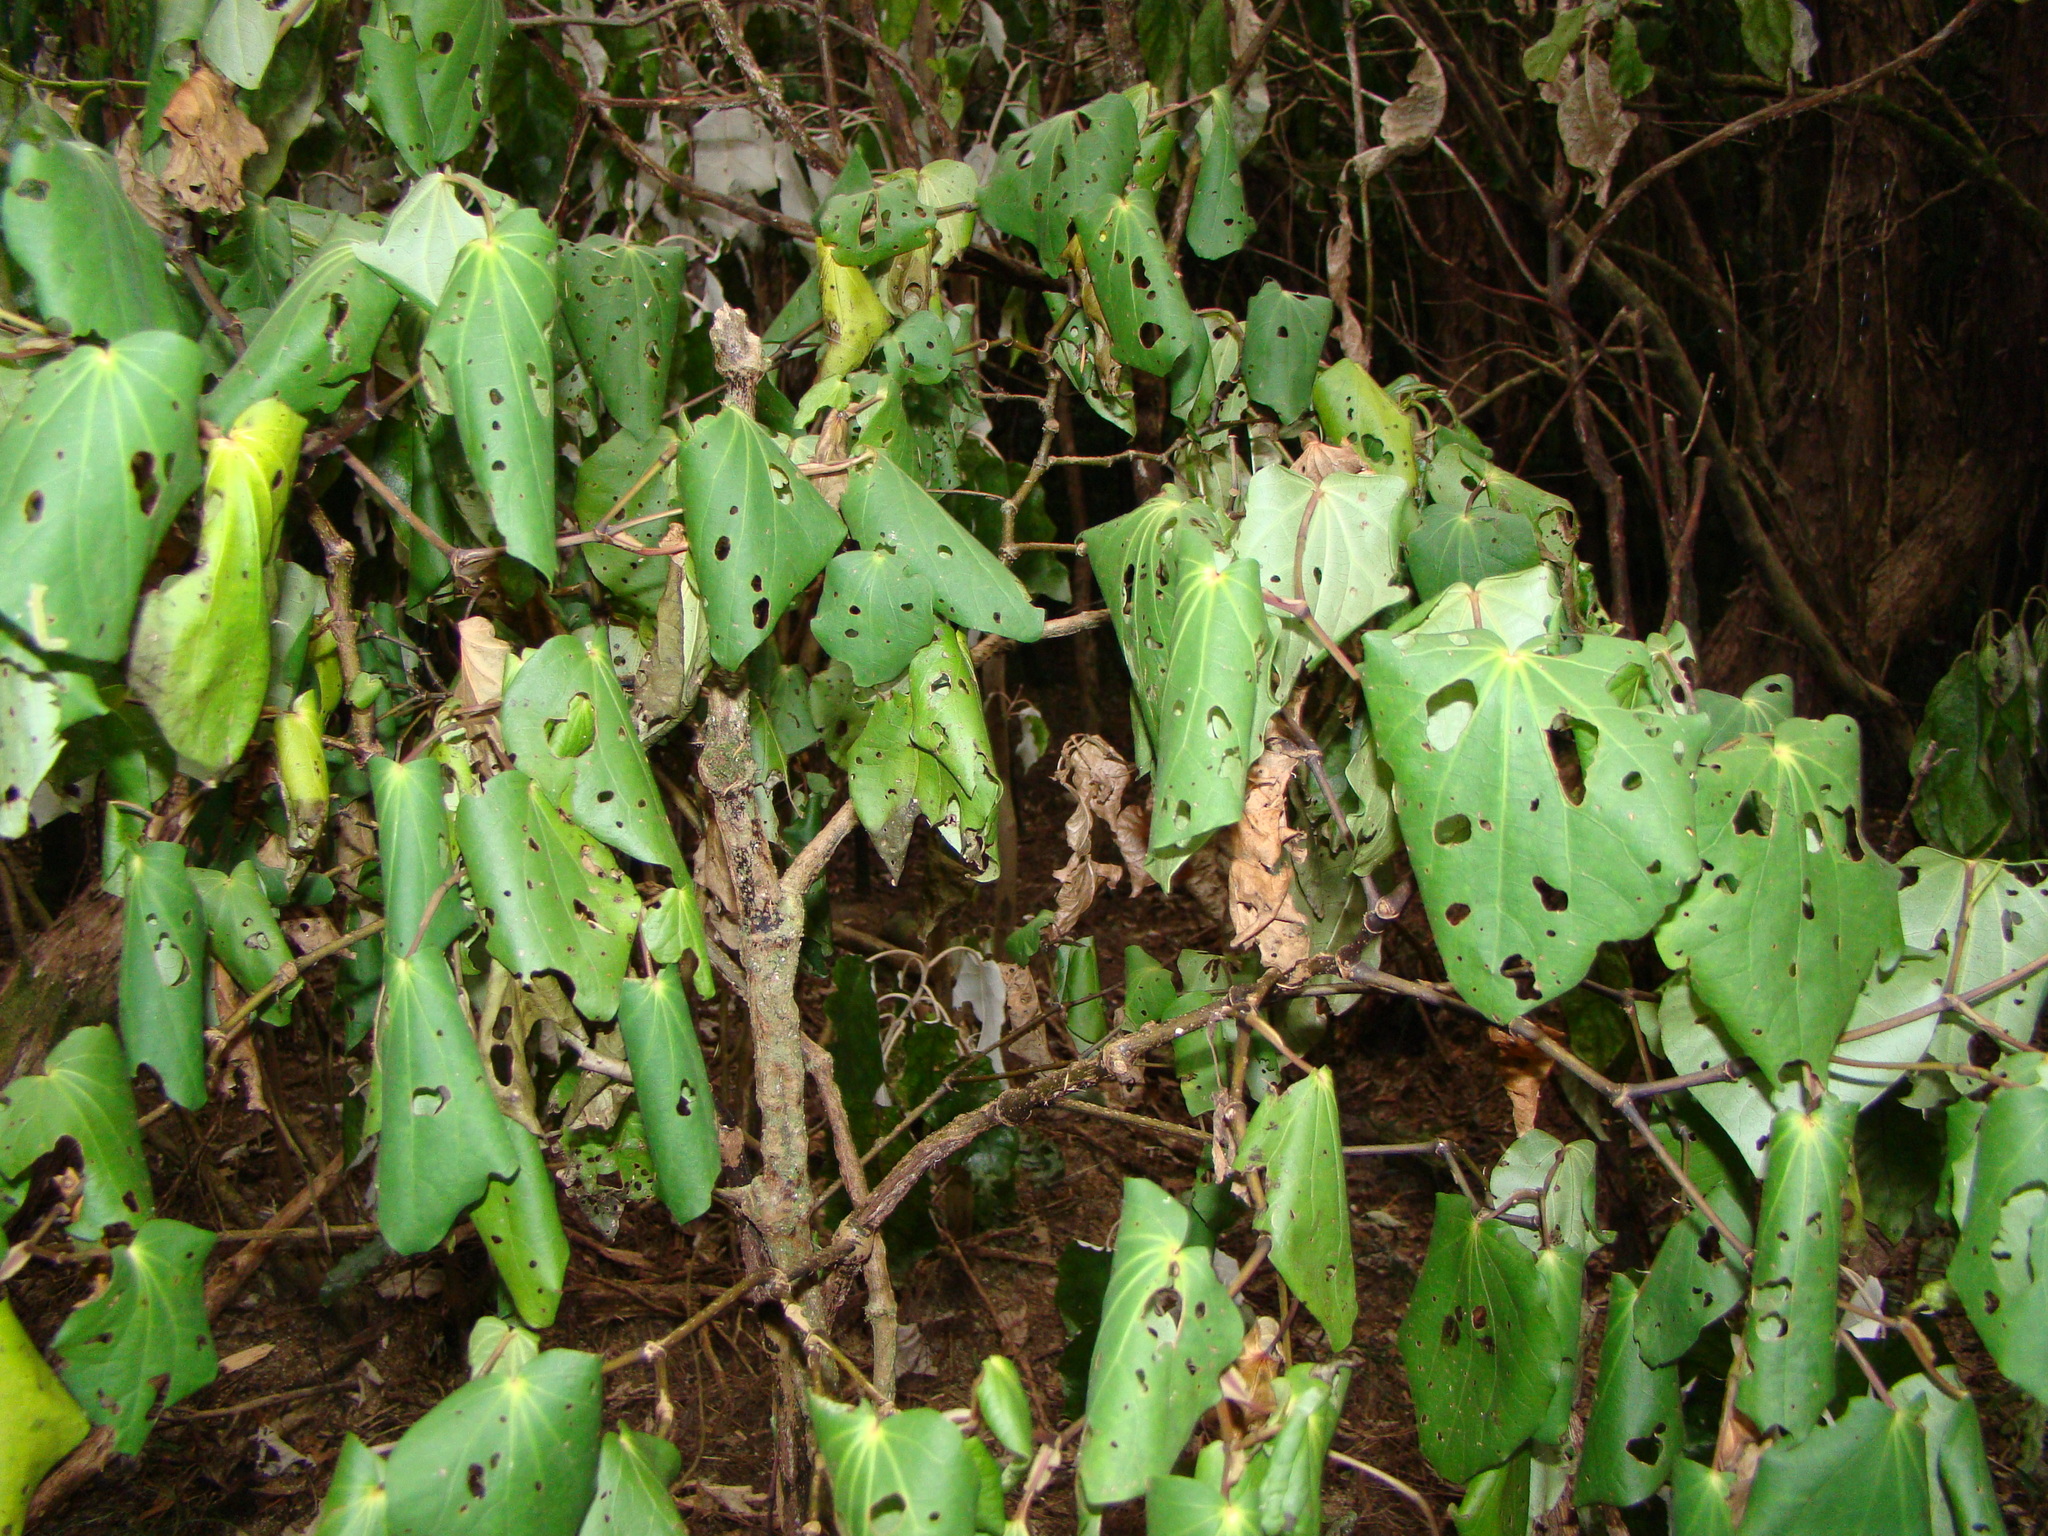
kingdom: Plantae
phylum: Tracheophyta
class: Magnoliopsida
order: Piperales
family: Piperaceae
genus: Macropiper
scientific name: Macropiper excelsum
